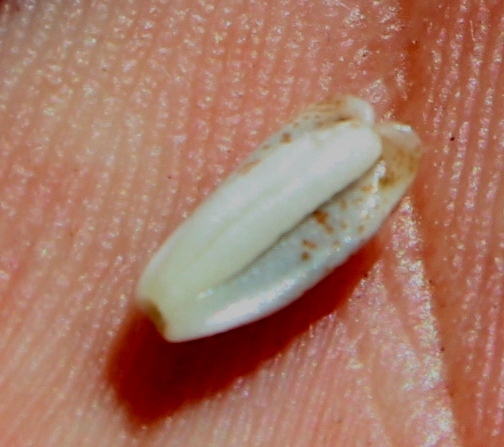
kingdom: Plantae
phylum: Tracheophyta
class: Magnoliopsida
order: Proteales
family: Proteaceae
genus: Leucadendron
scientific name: Leucadendron nitidum
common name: Bokkeveld conebush
